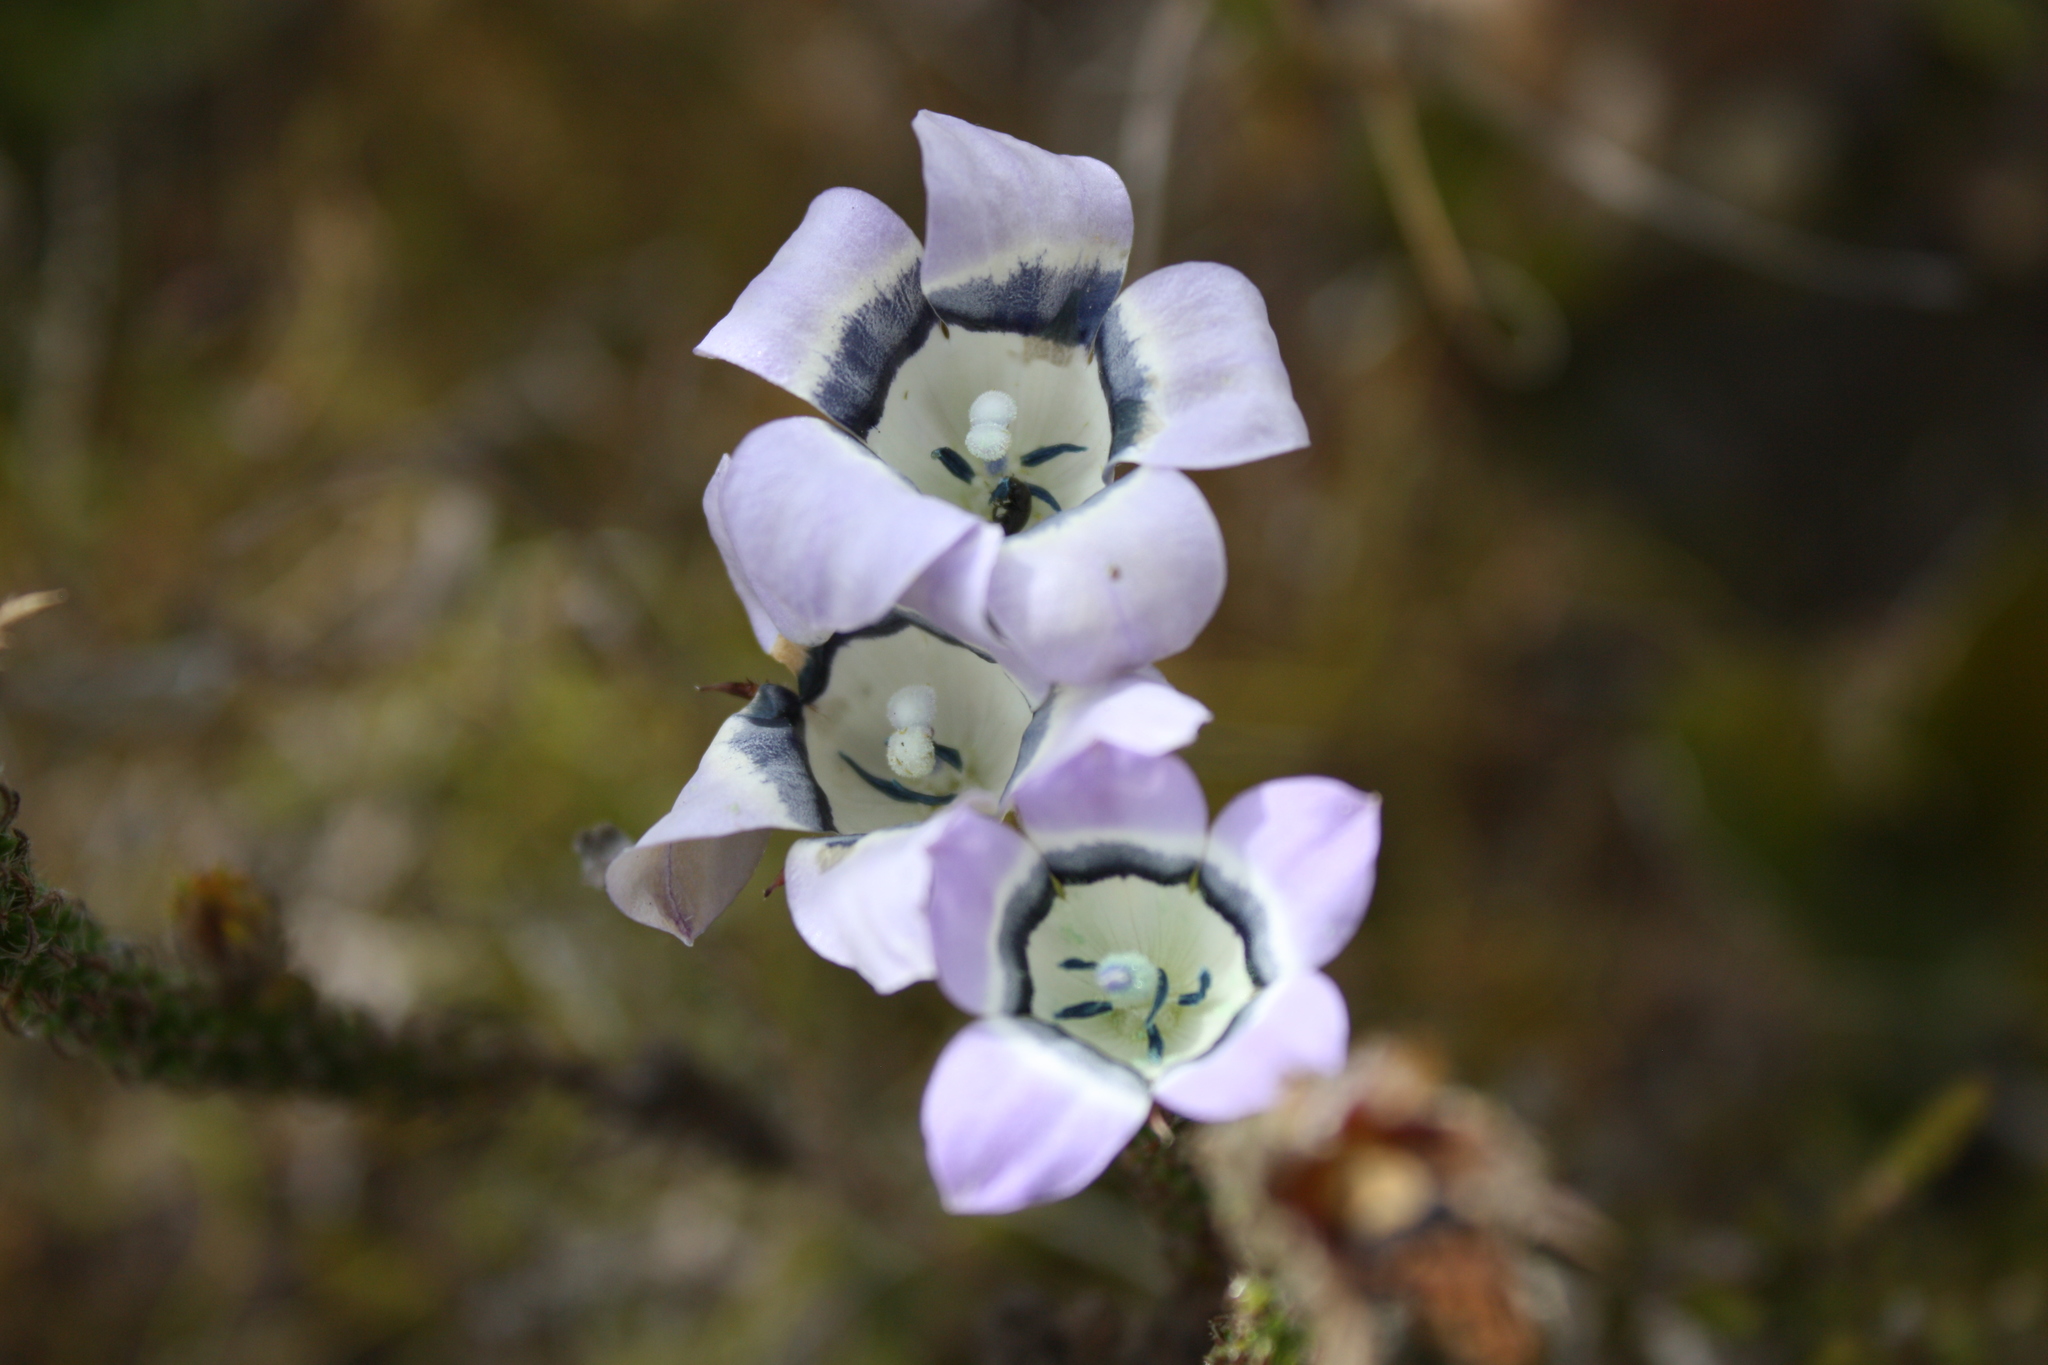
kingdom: Plantae
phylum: Tracheophyta
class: Magnoliopsida
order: Asterales
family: Campanulaceae
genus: Roella
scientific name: Roella ciliata
